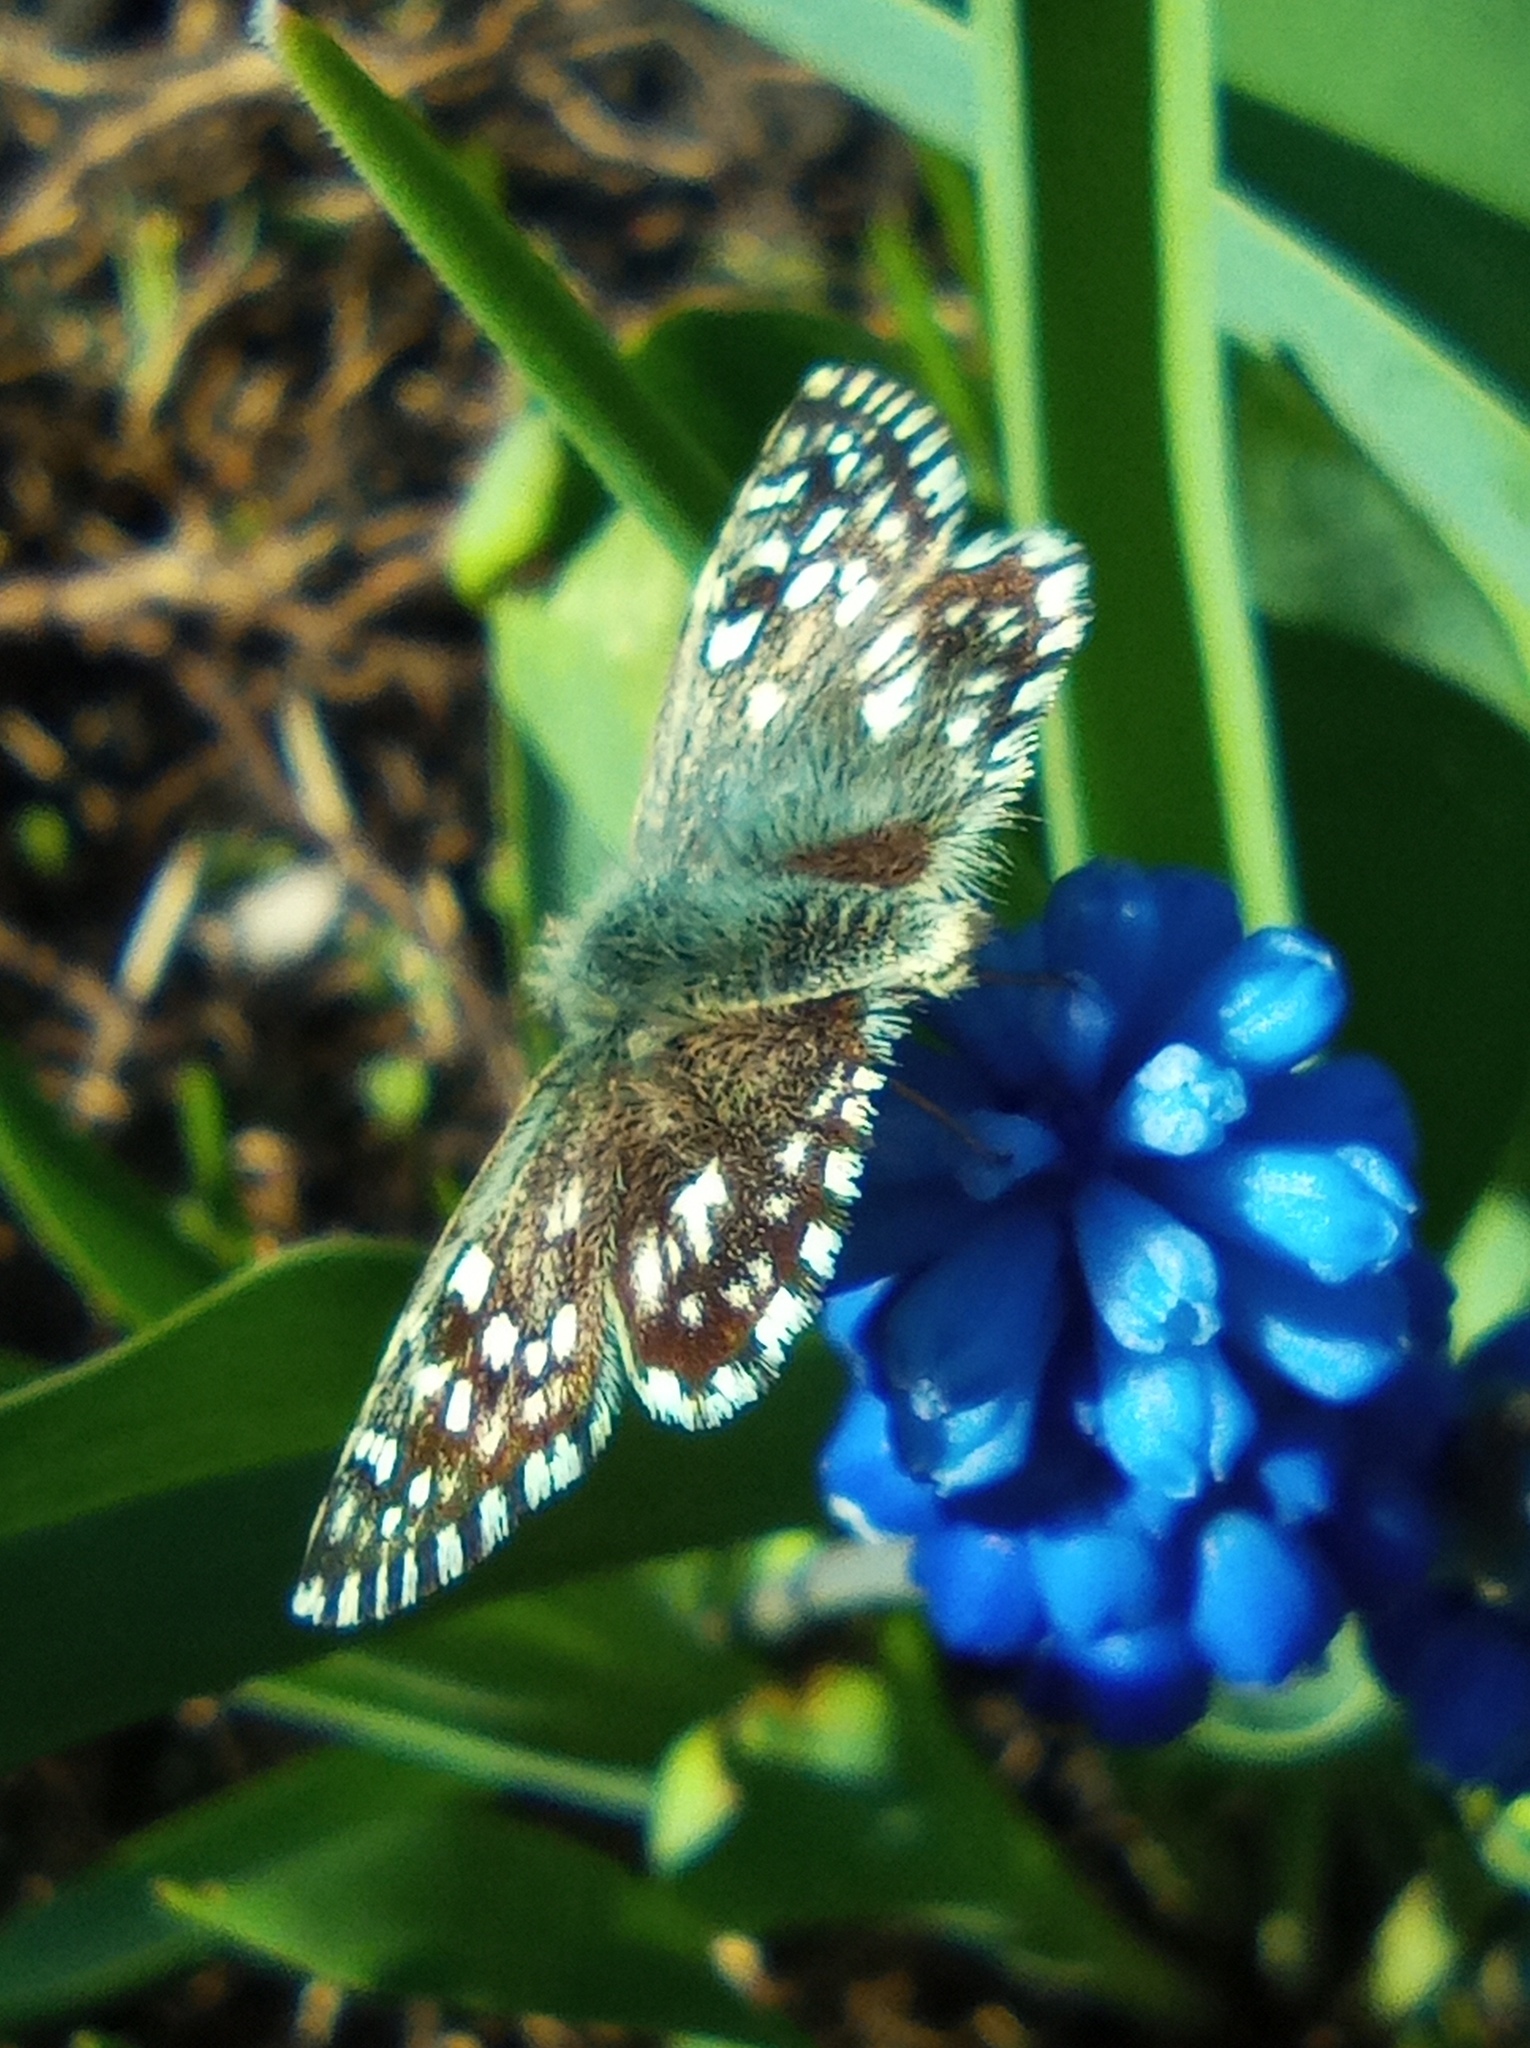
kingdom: Animalia
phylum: Arthropoda
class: Insecta
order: Lepidoptera
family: Hesperiidae
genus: Pyrgus
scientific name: Pyrgus malvae
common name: Grizzled skipper
